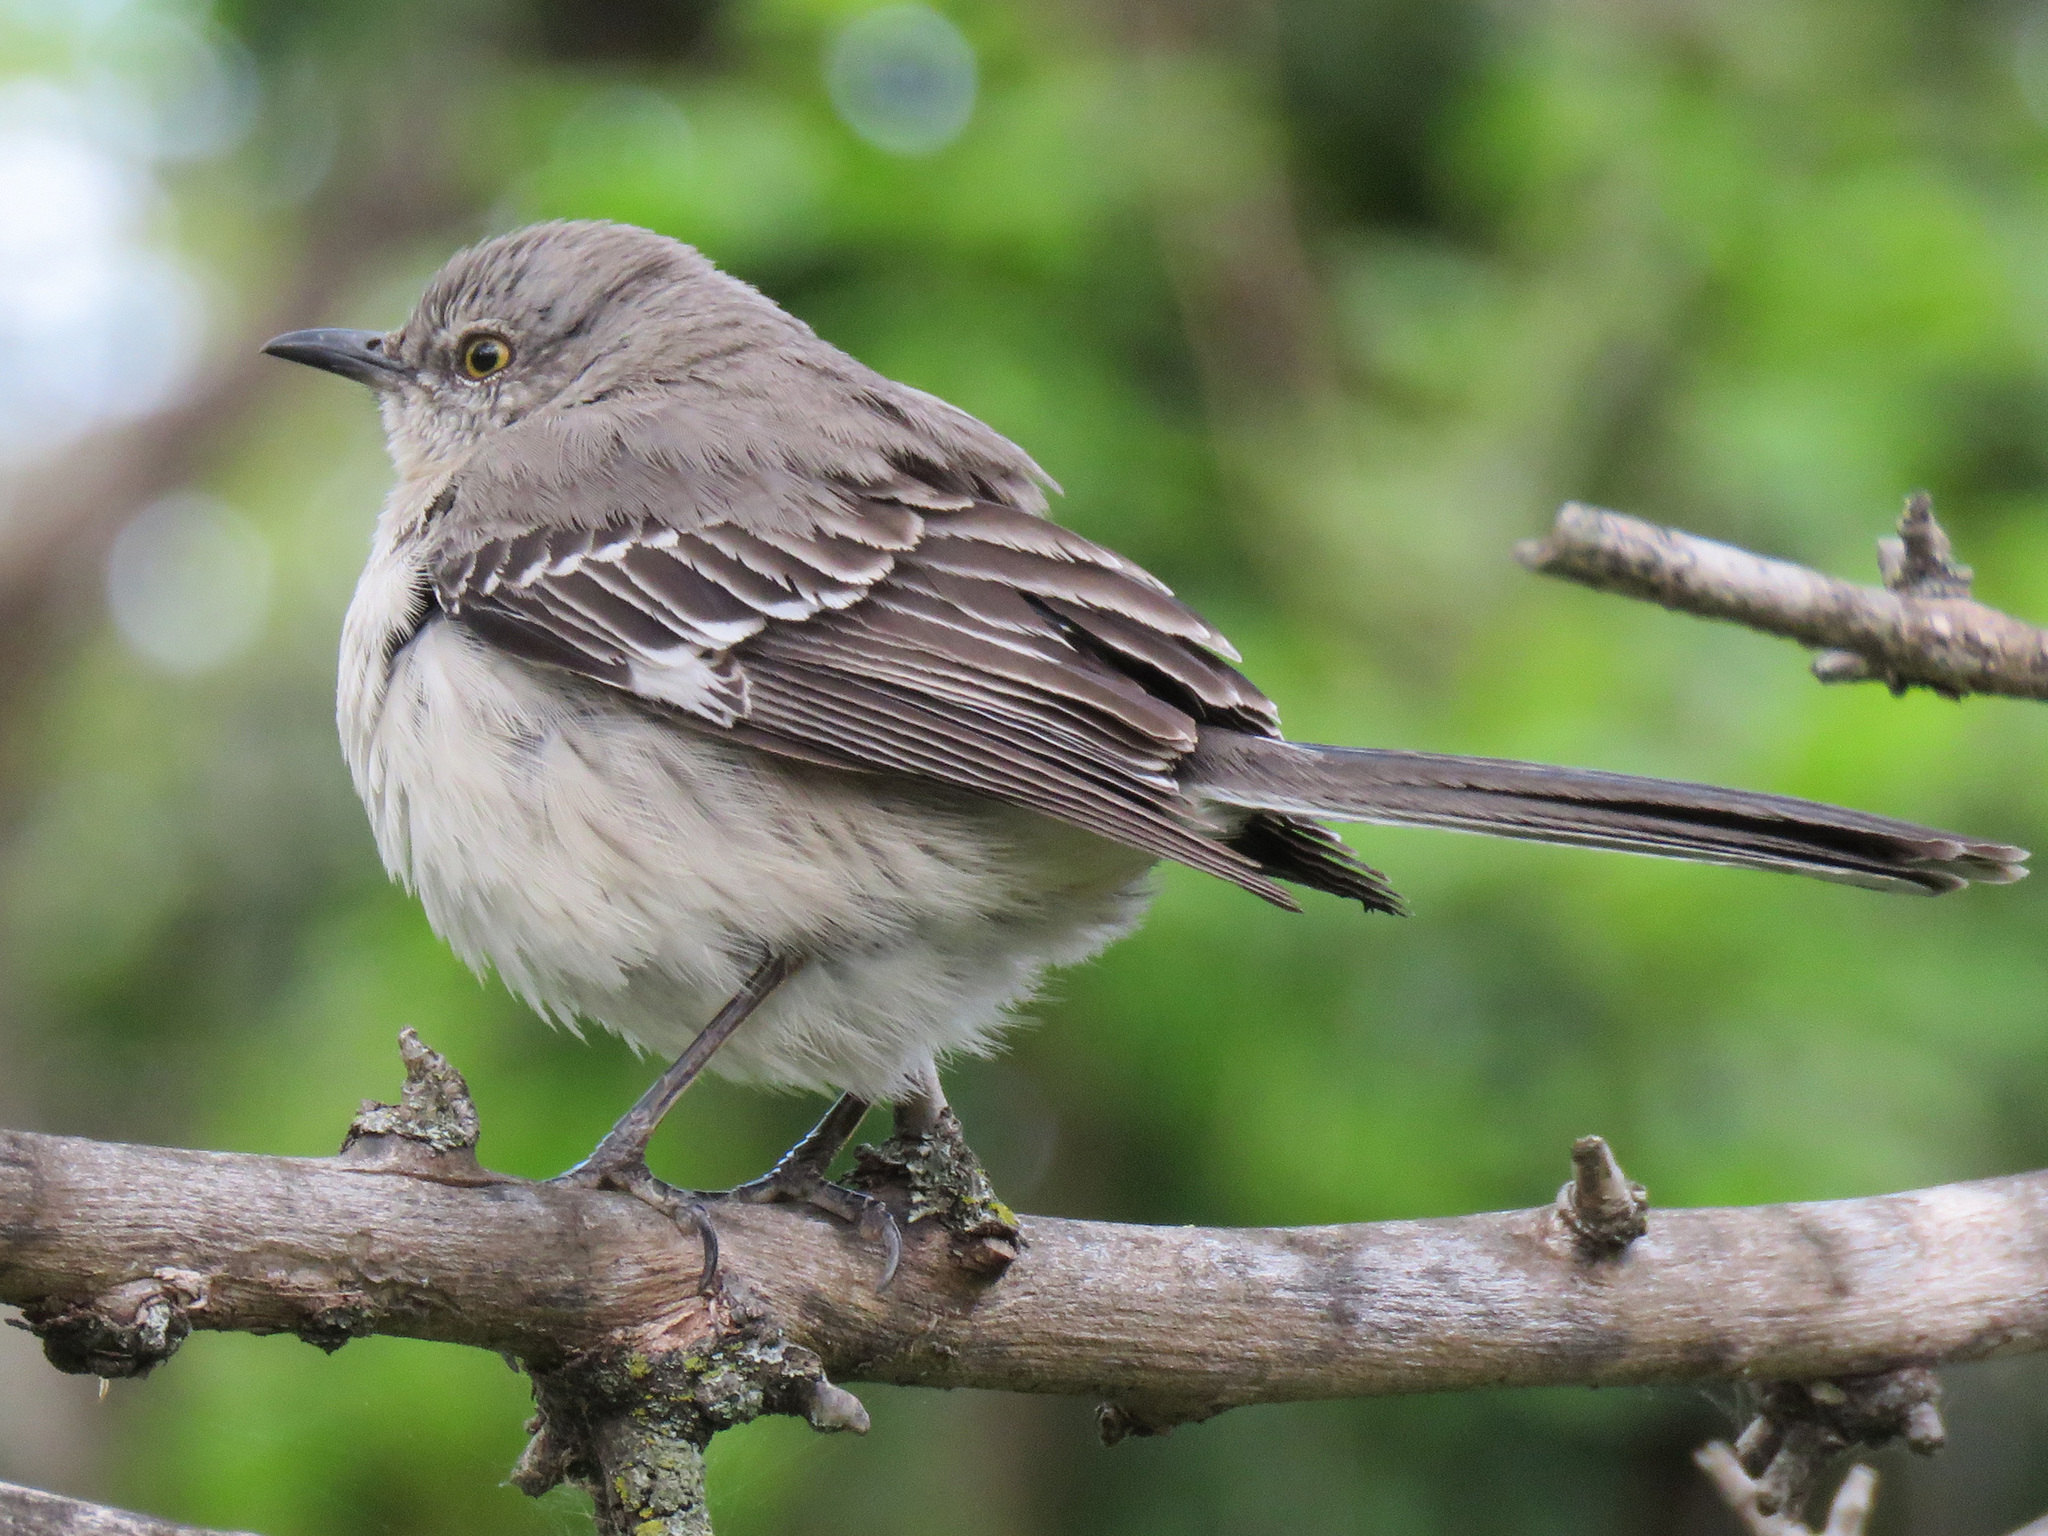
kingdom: Animalia
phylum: Chordata
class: Aves
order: Passeriformes
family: Mimidae
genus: Mimus
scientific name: Mimus polyglottos
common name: Northern mockingbird
